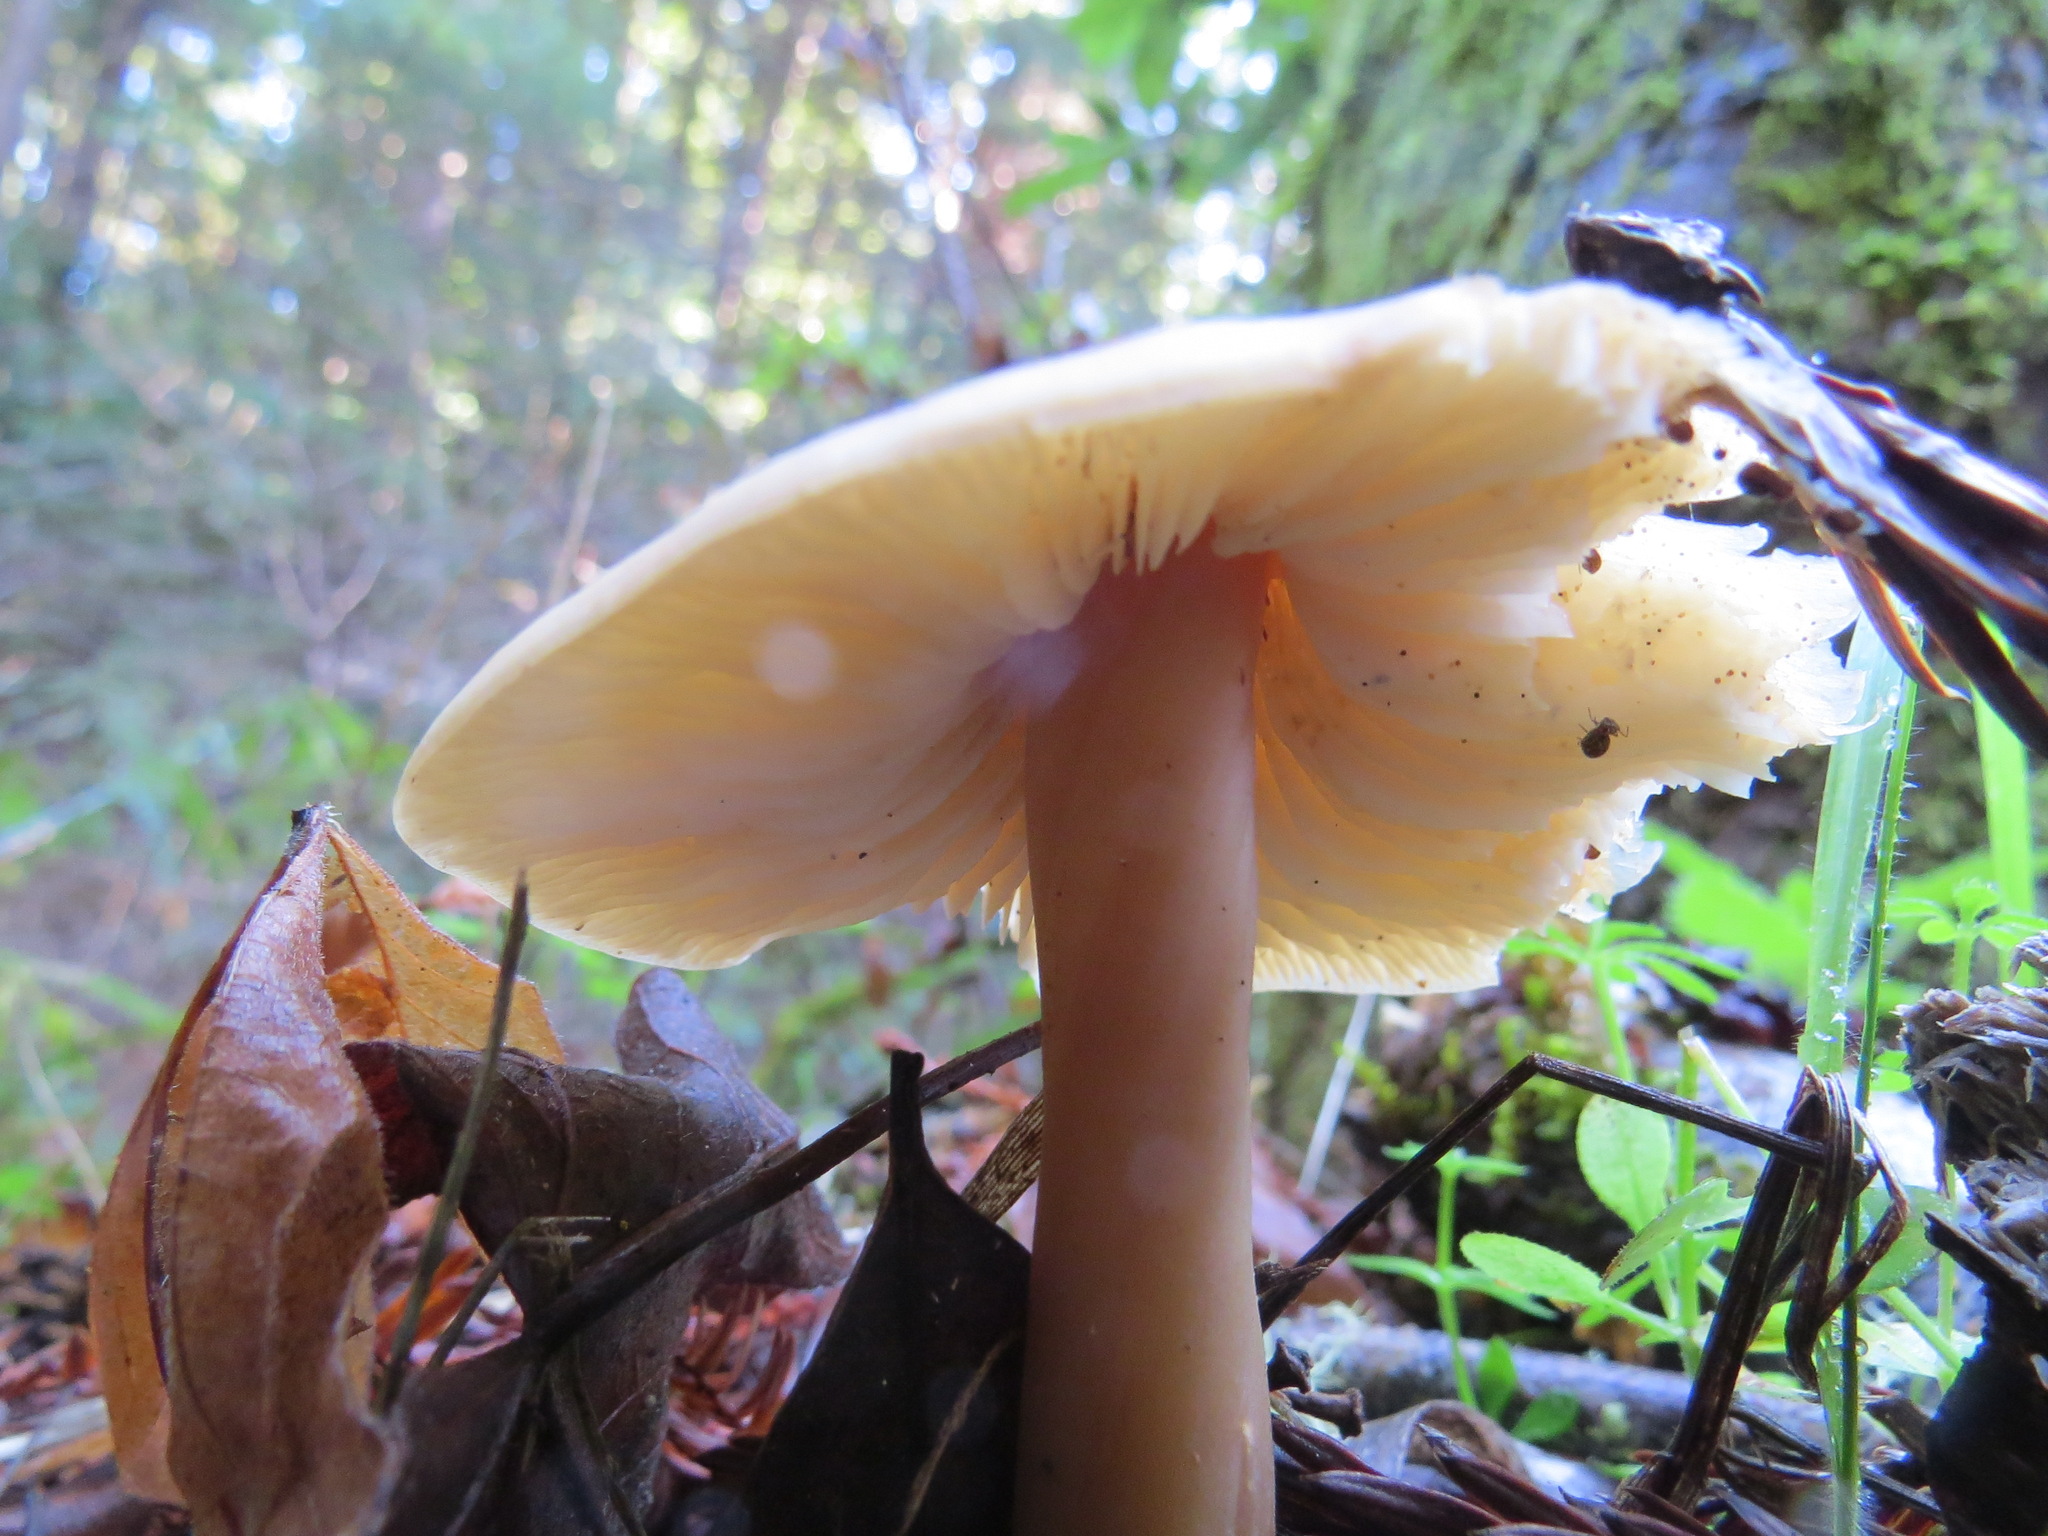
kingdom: Fungi
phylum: Basidiomycota
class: Agaricomycetes
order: Agaricales
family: Tricholomataceae
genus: Caulorhiza
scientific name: Caulorhiza umbonata
